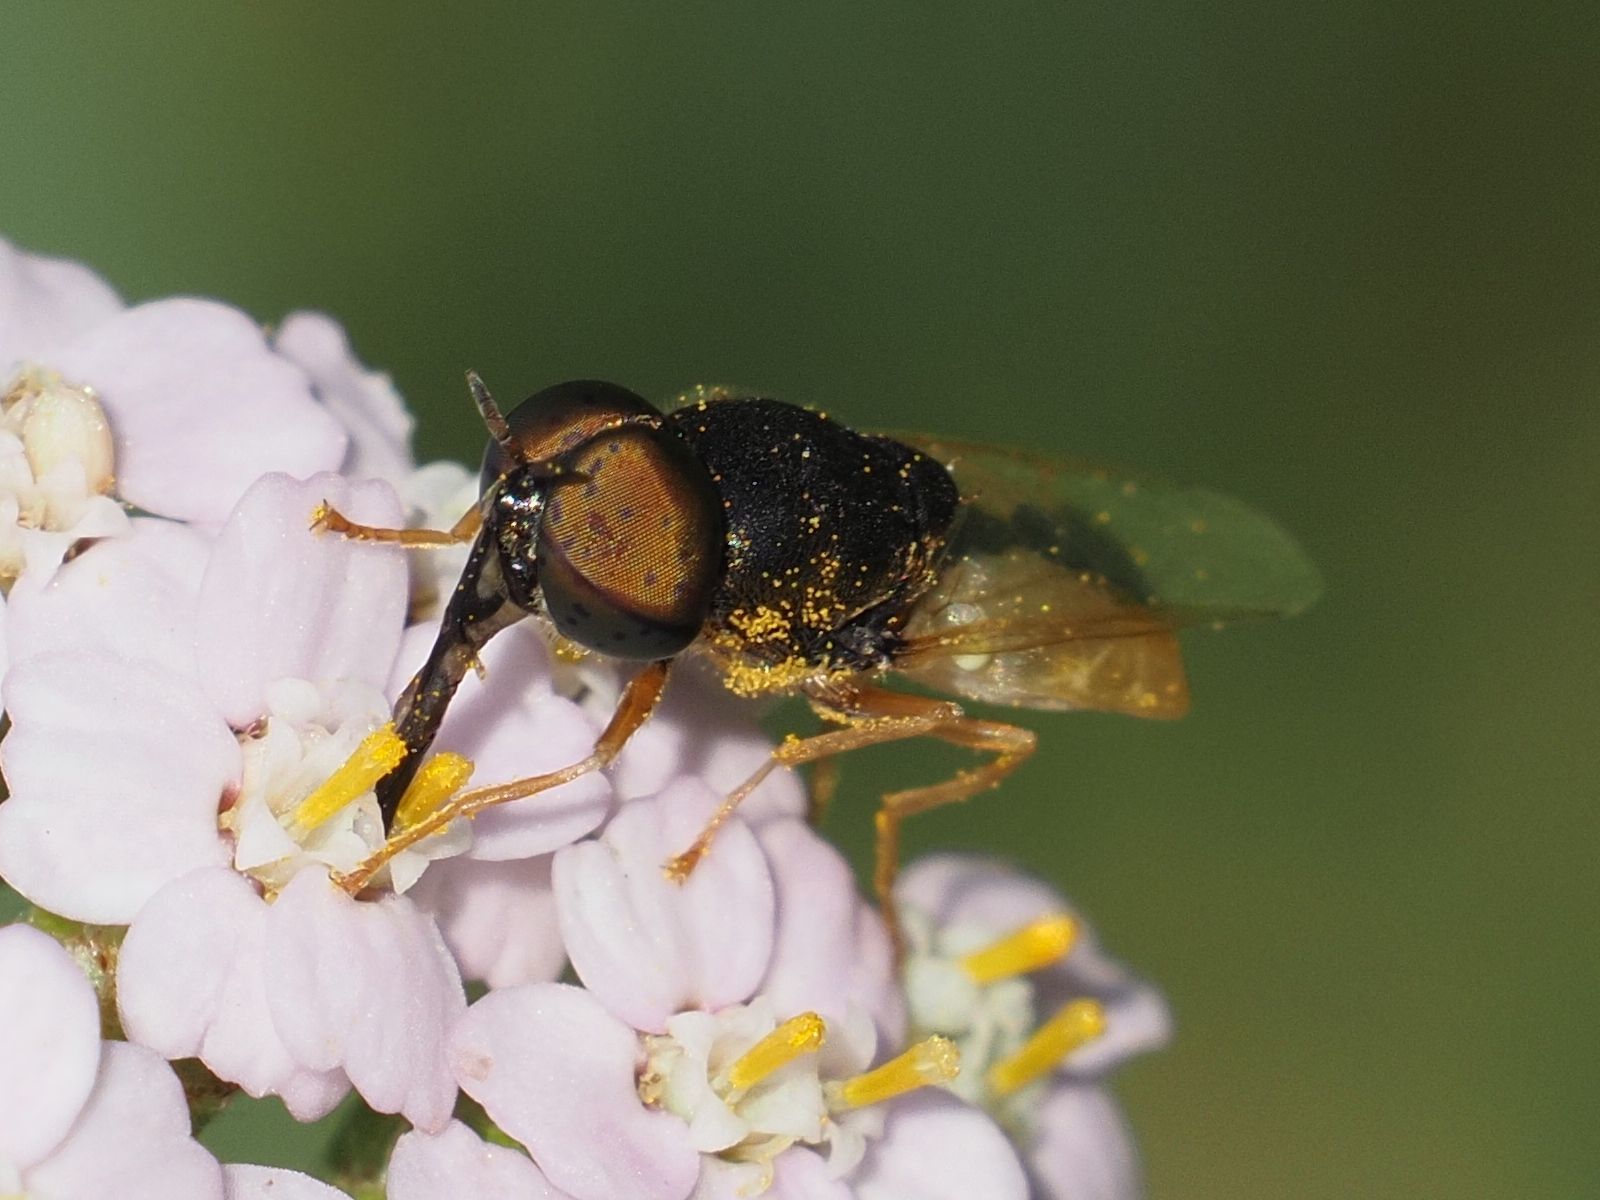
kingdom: Animalia
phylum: Arthropoda
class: Insecta
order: Diptera
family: Stratiomyidae
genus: Oplodontha
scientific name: Oplodontha viridula
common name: Common green colonel
